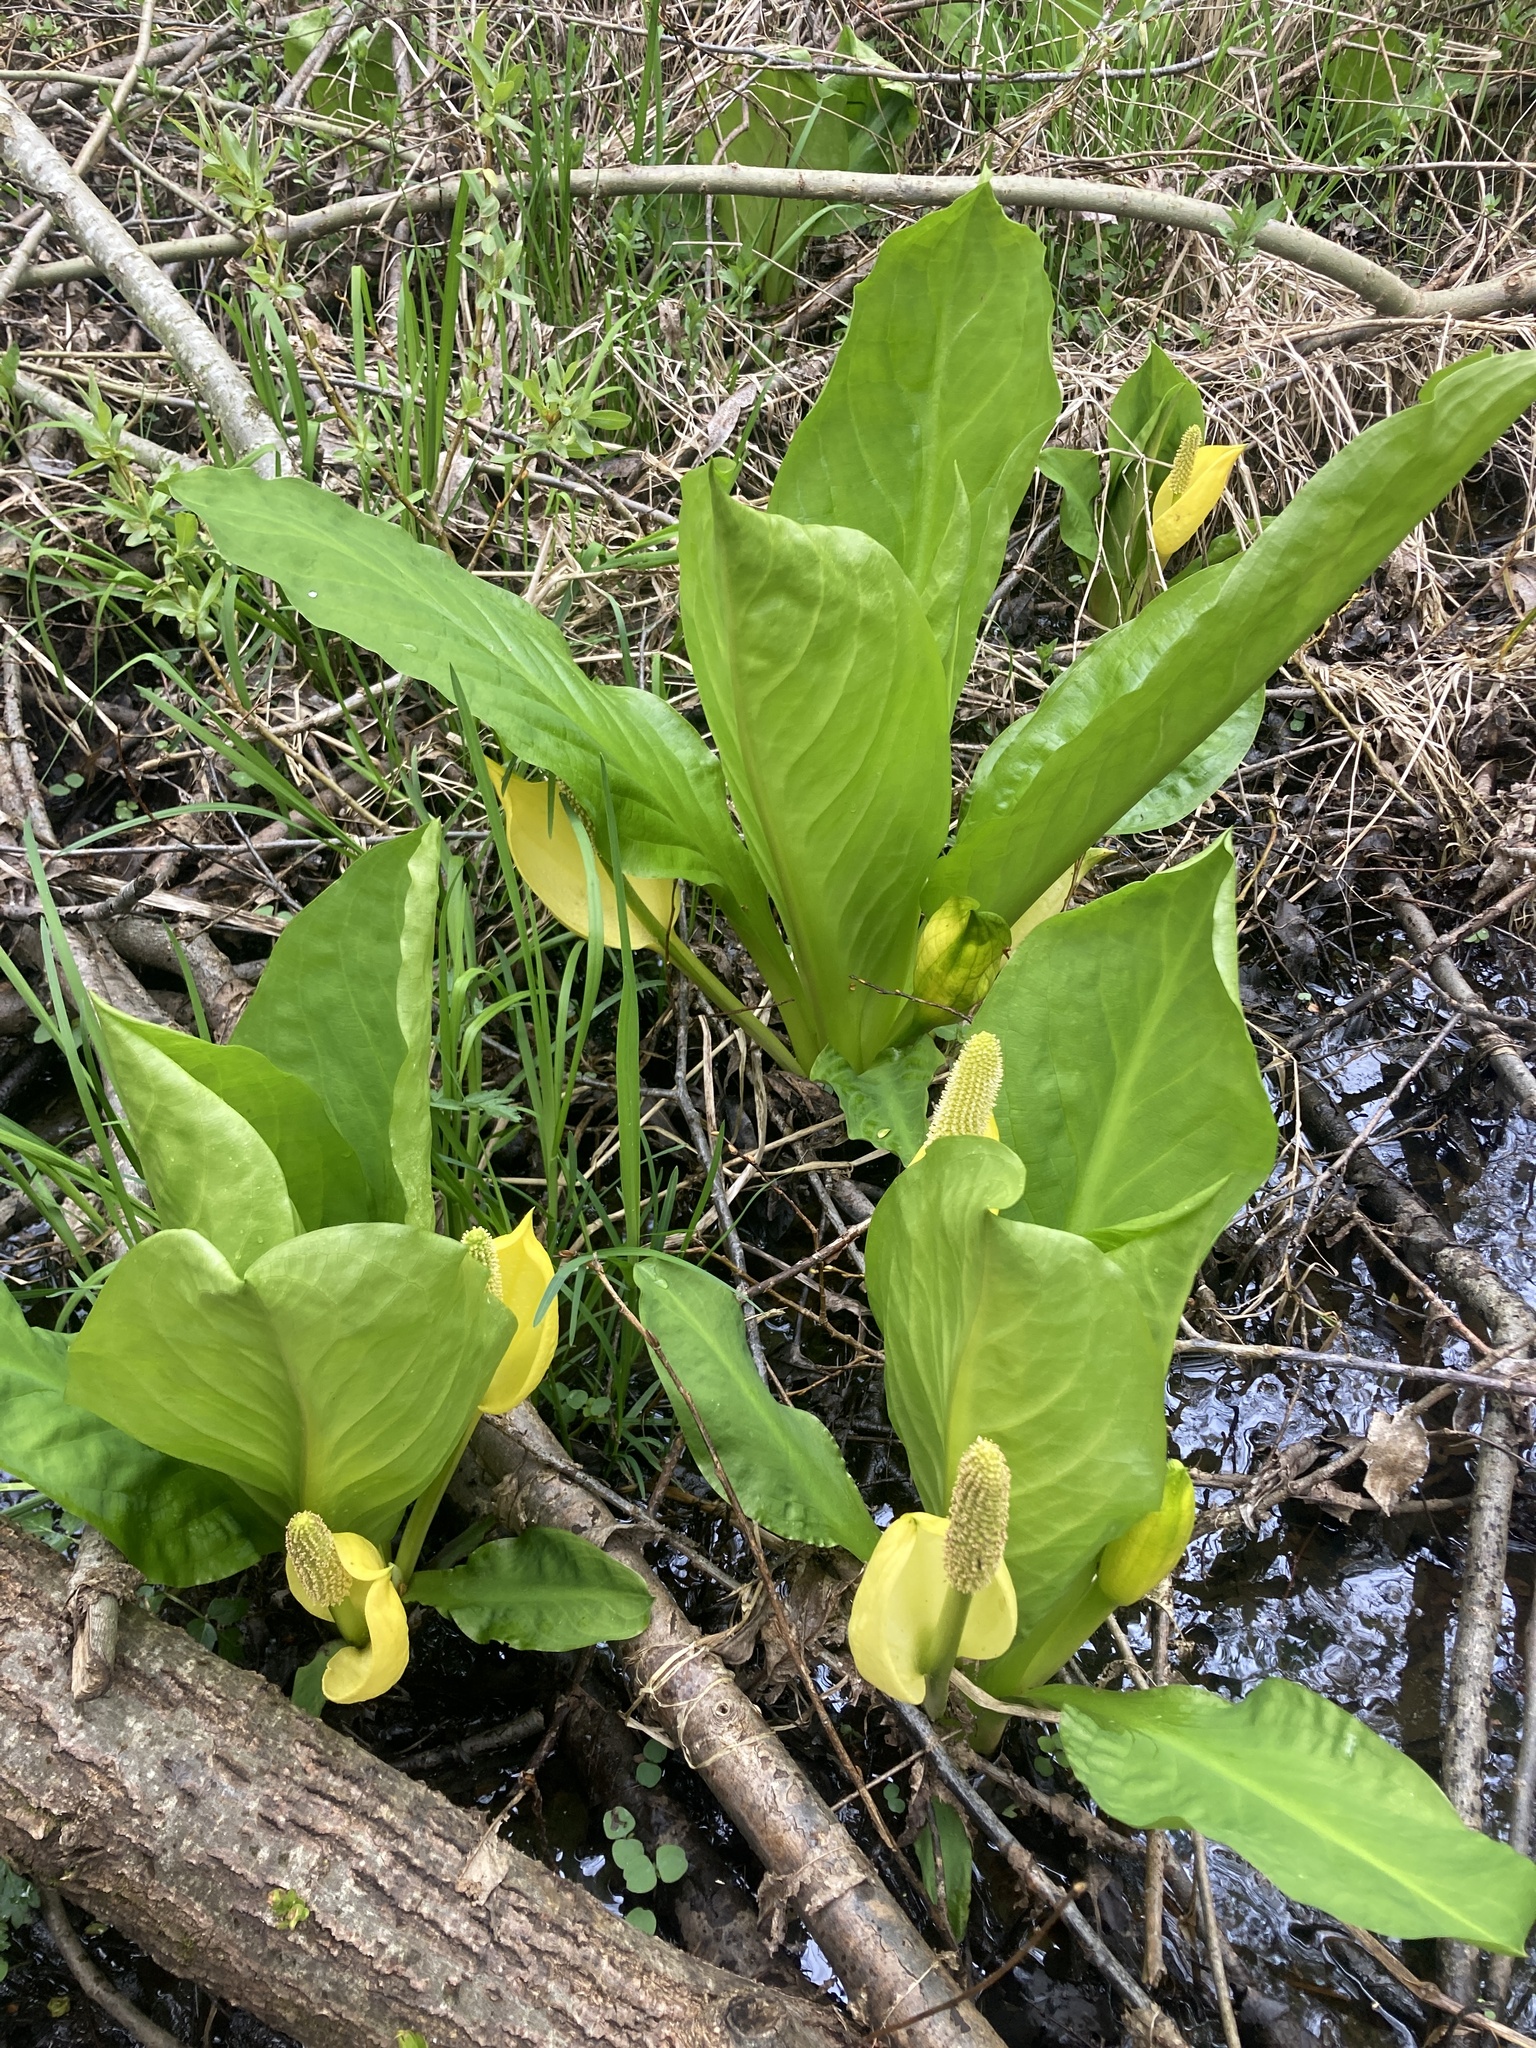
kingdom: Plantae
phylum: Tracheophyta
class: Liliopsida
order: Alismatales
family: Araceae
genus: Lysichiton
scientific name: Lysichiton americanus
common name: American skunk cabbage
